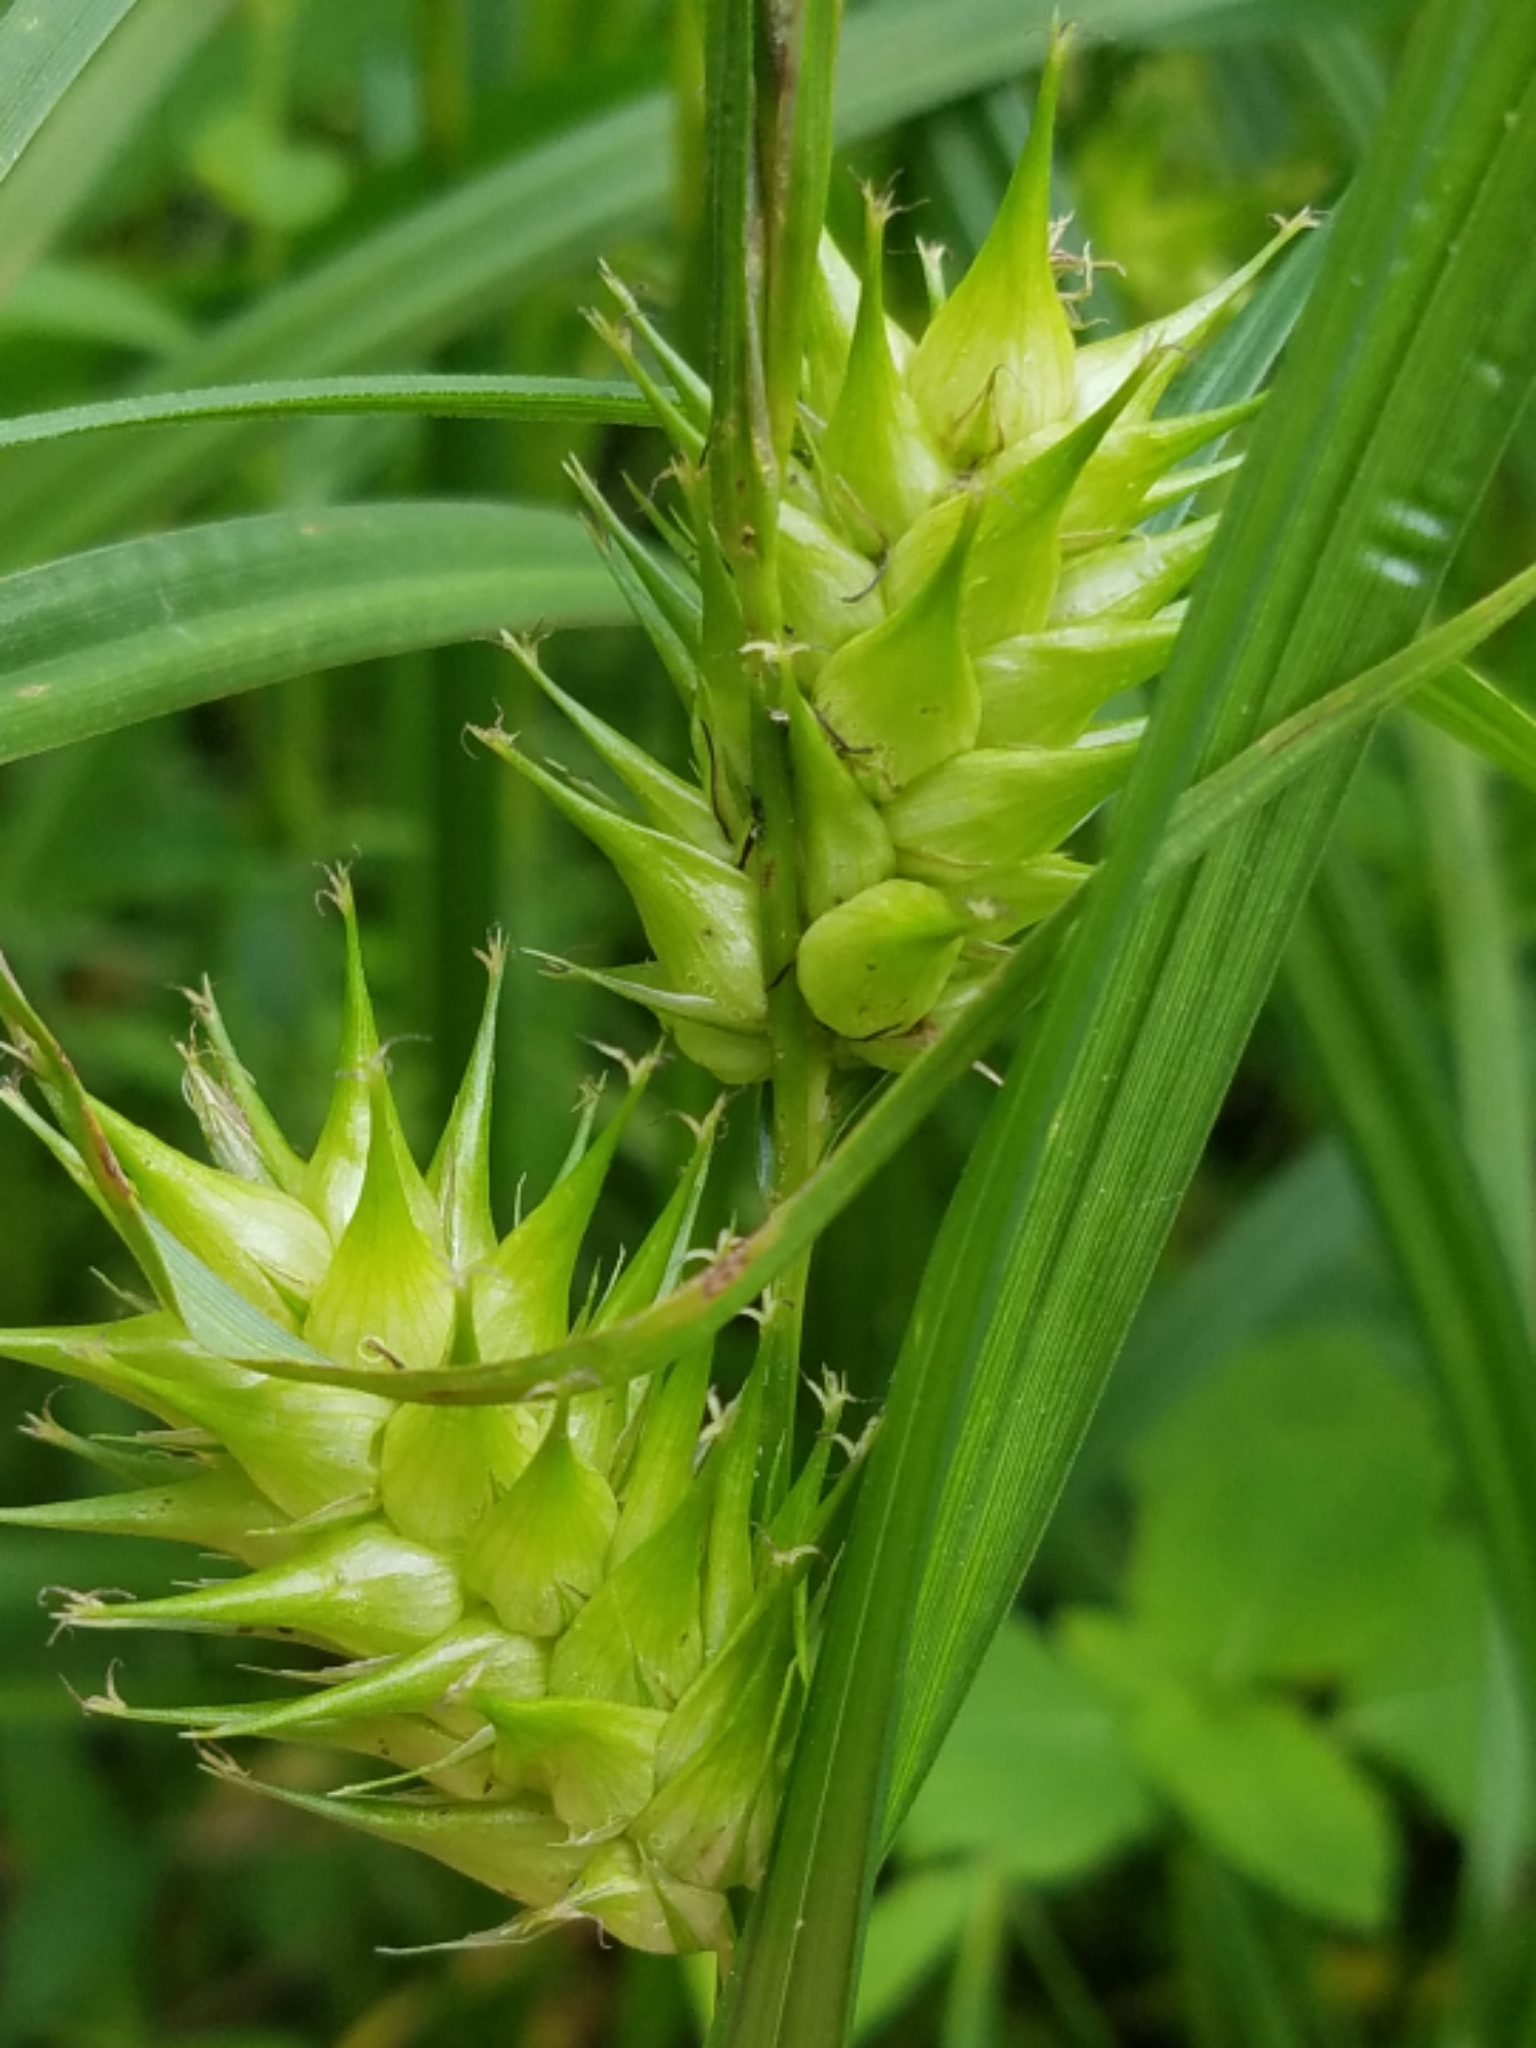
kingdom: Plantae
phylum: Tracheophyta
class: Liliopsida
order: Poales
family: Cyperaceae
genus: Carex
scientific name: Carex lupulina
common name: Hop sedge
